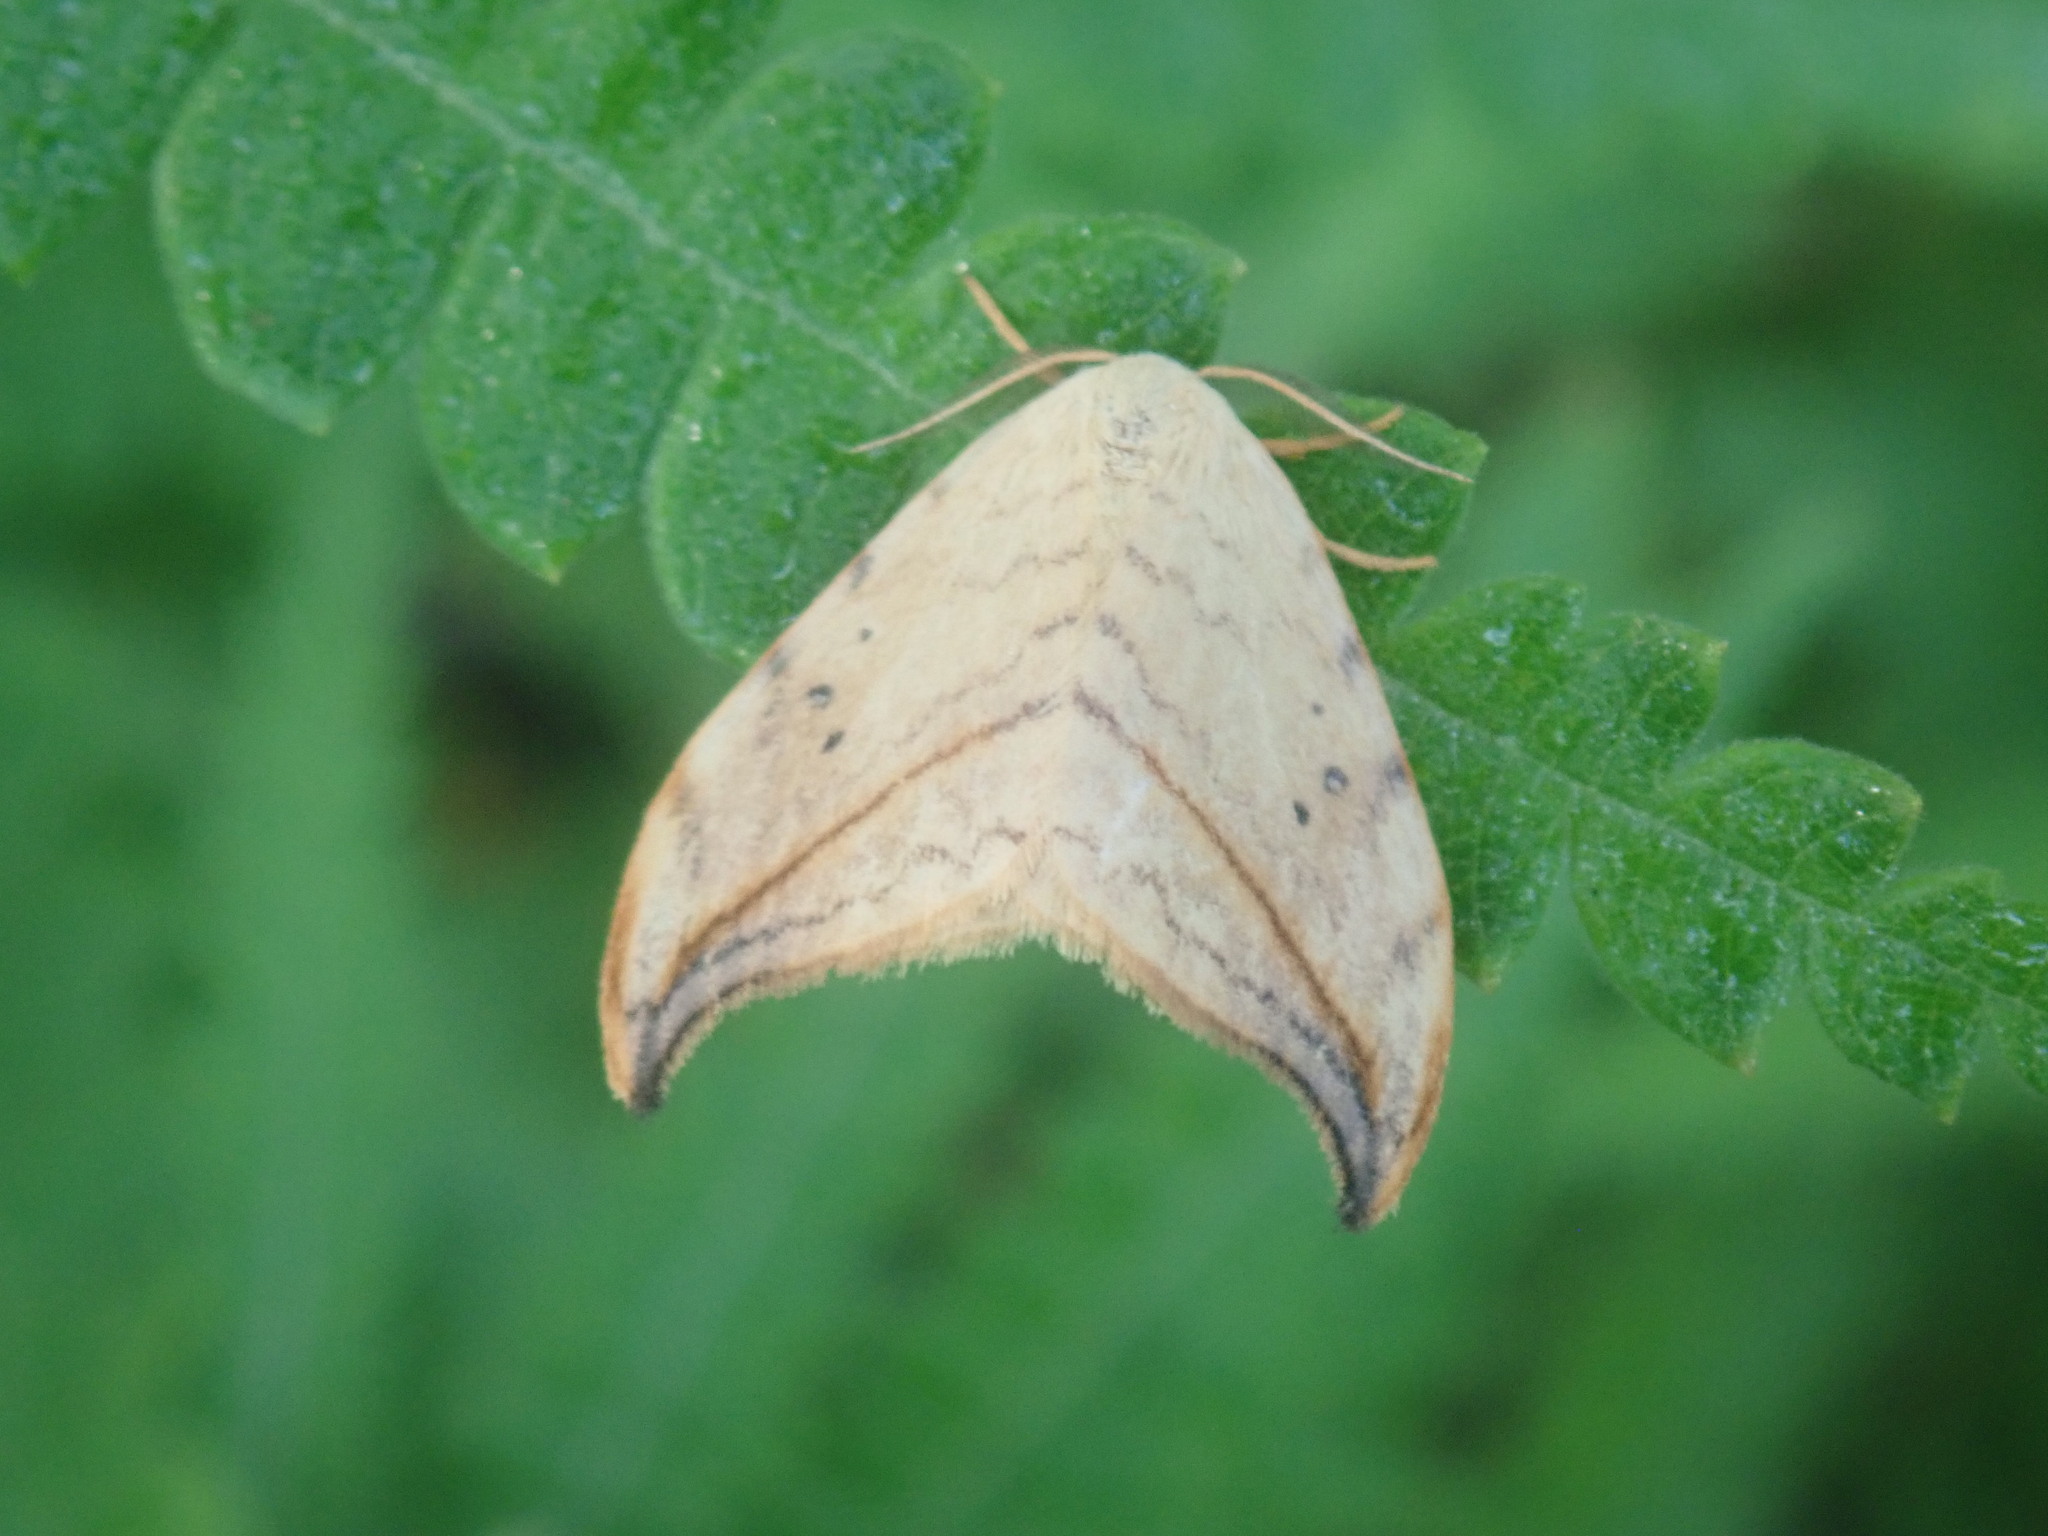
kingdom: Animalia
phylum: Arthropoda
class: Insecta
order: Lepidoptera
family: Drepanidae
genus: Drepana
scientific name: Drepana arcuata
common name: Arched hooktip moth
